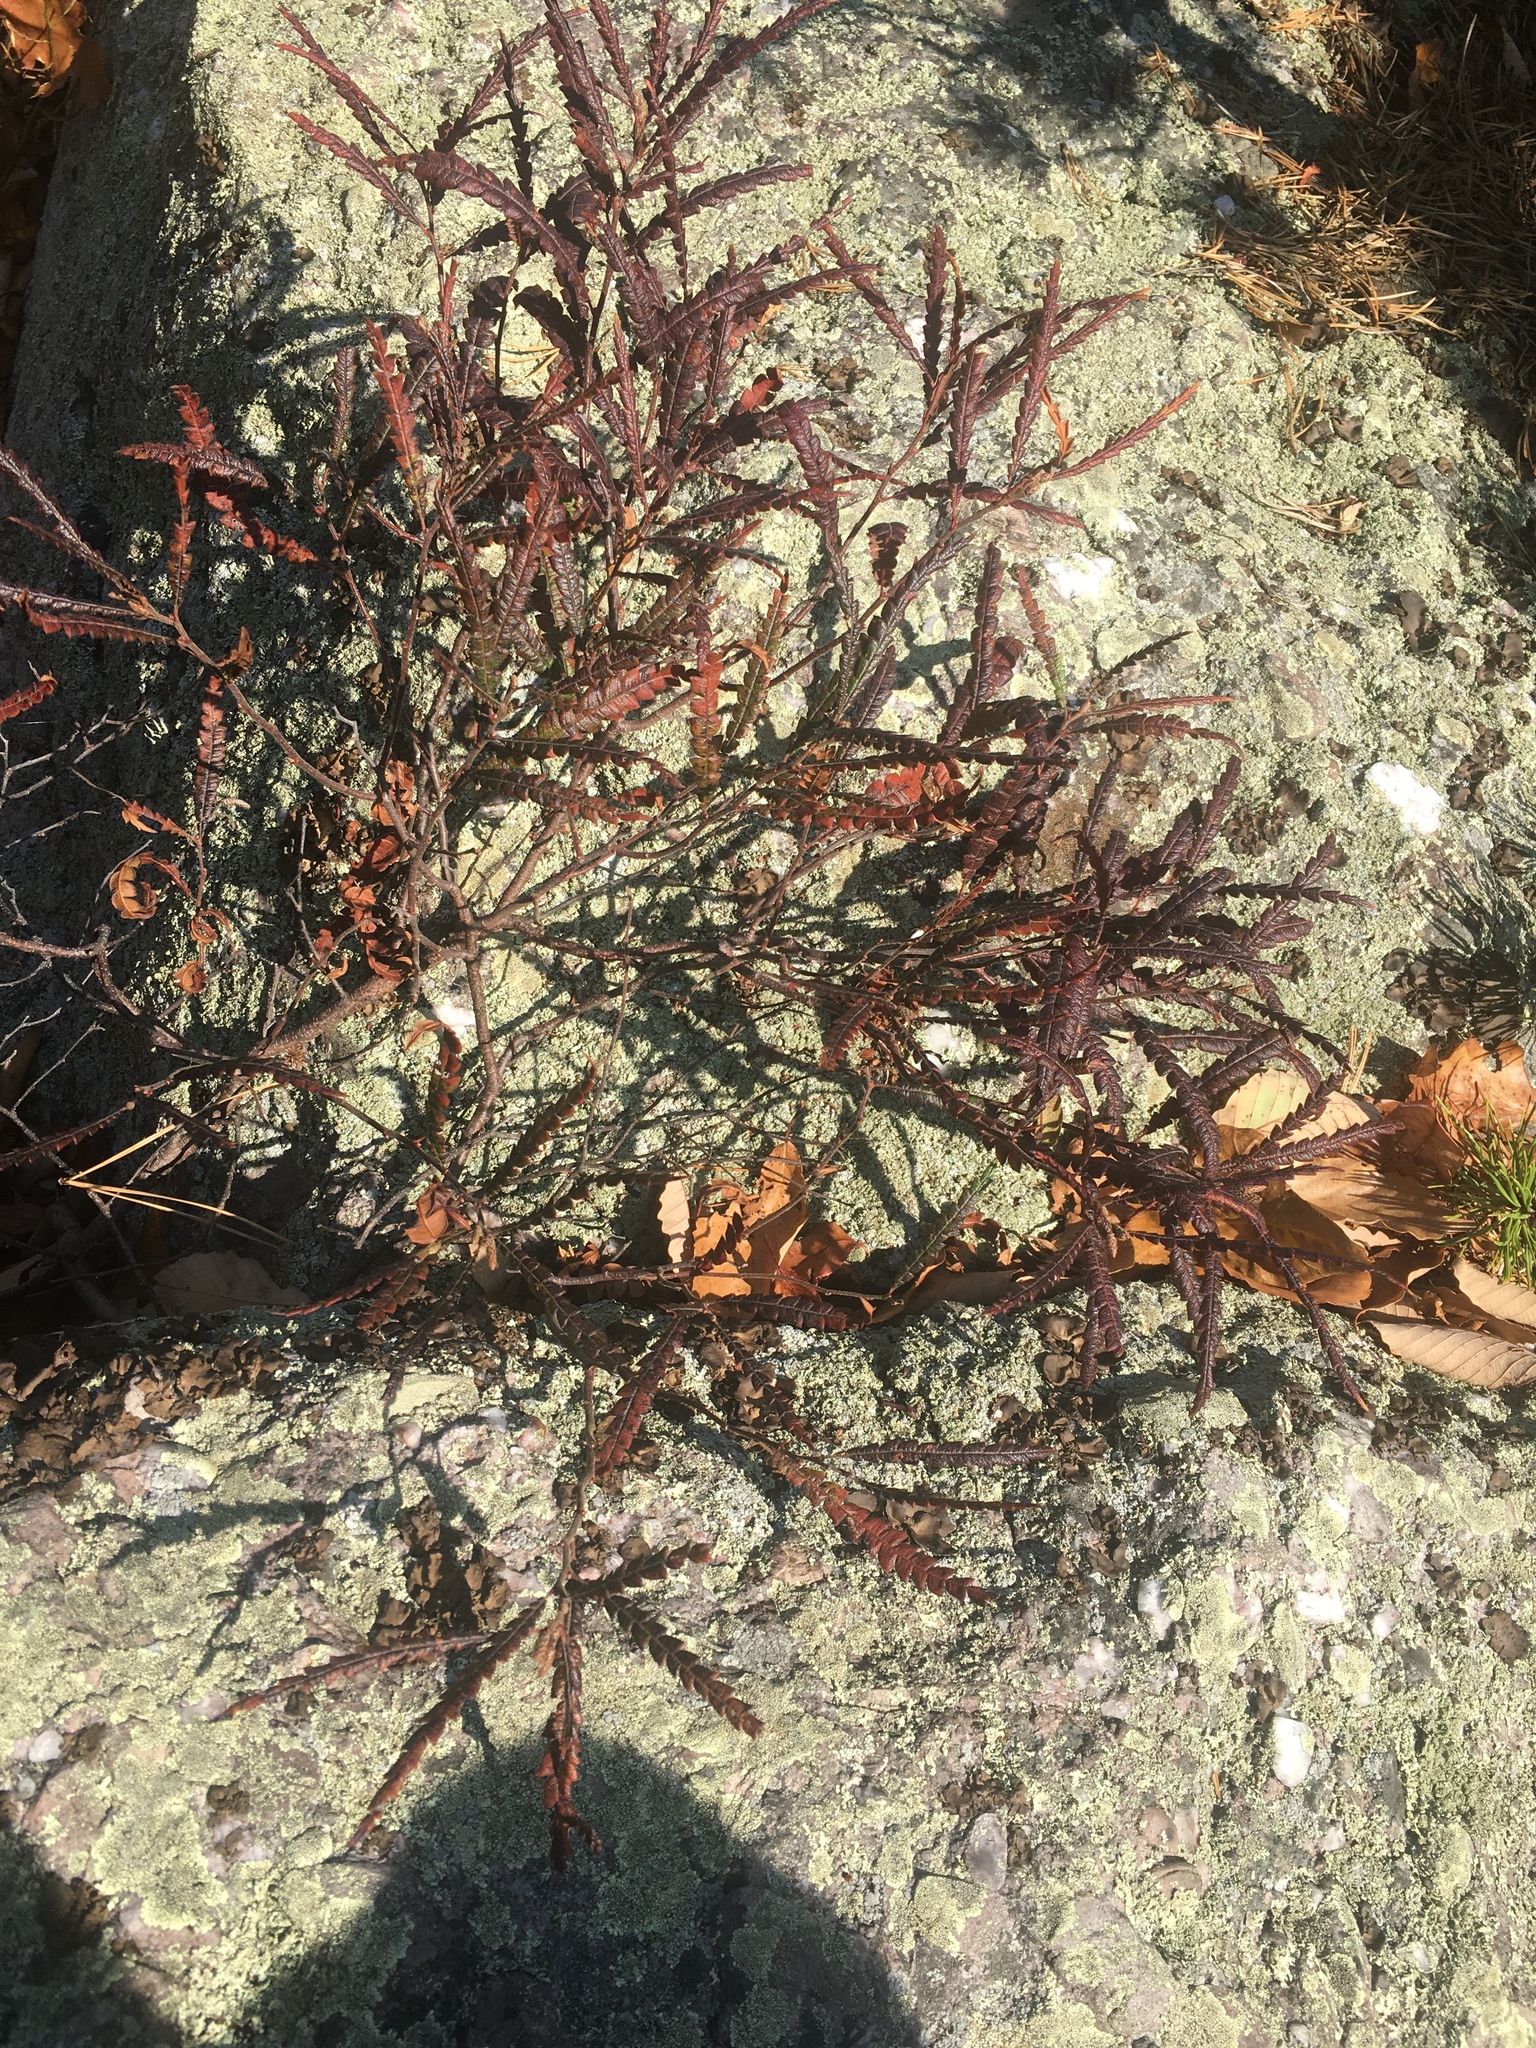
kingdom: Plantae
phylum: Tracheophyta
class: Magnoliopsida
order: Fagales
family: Myricaceae
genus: Comptonia
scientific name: Comptonia peregrina
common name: Sweet-fern
